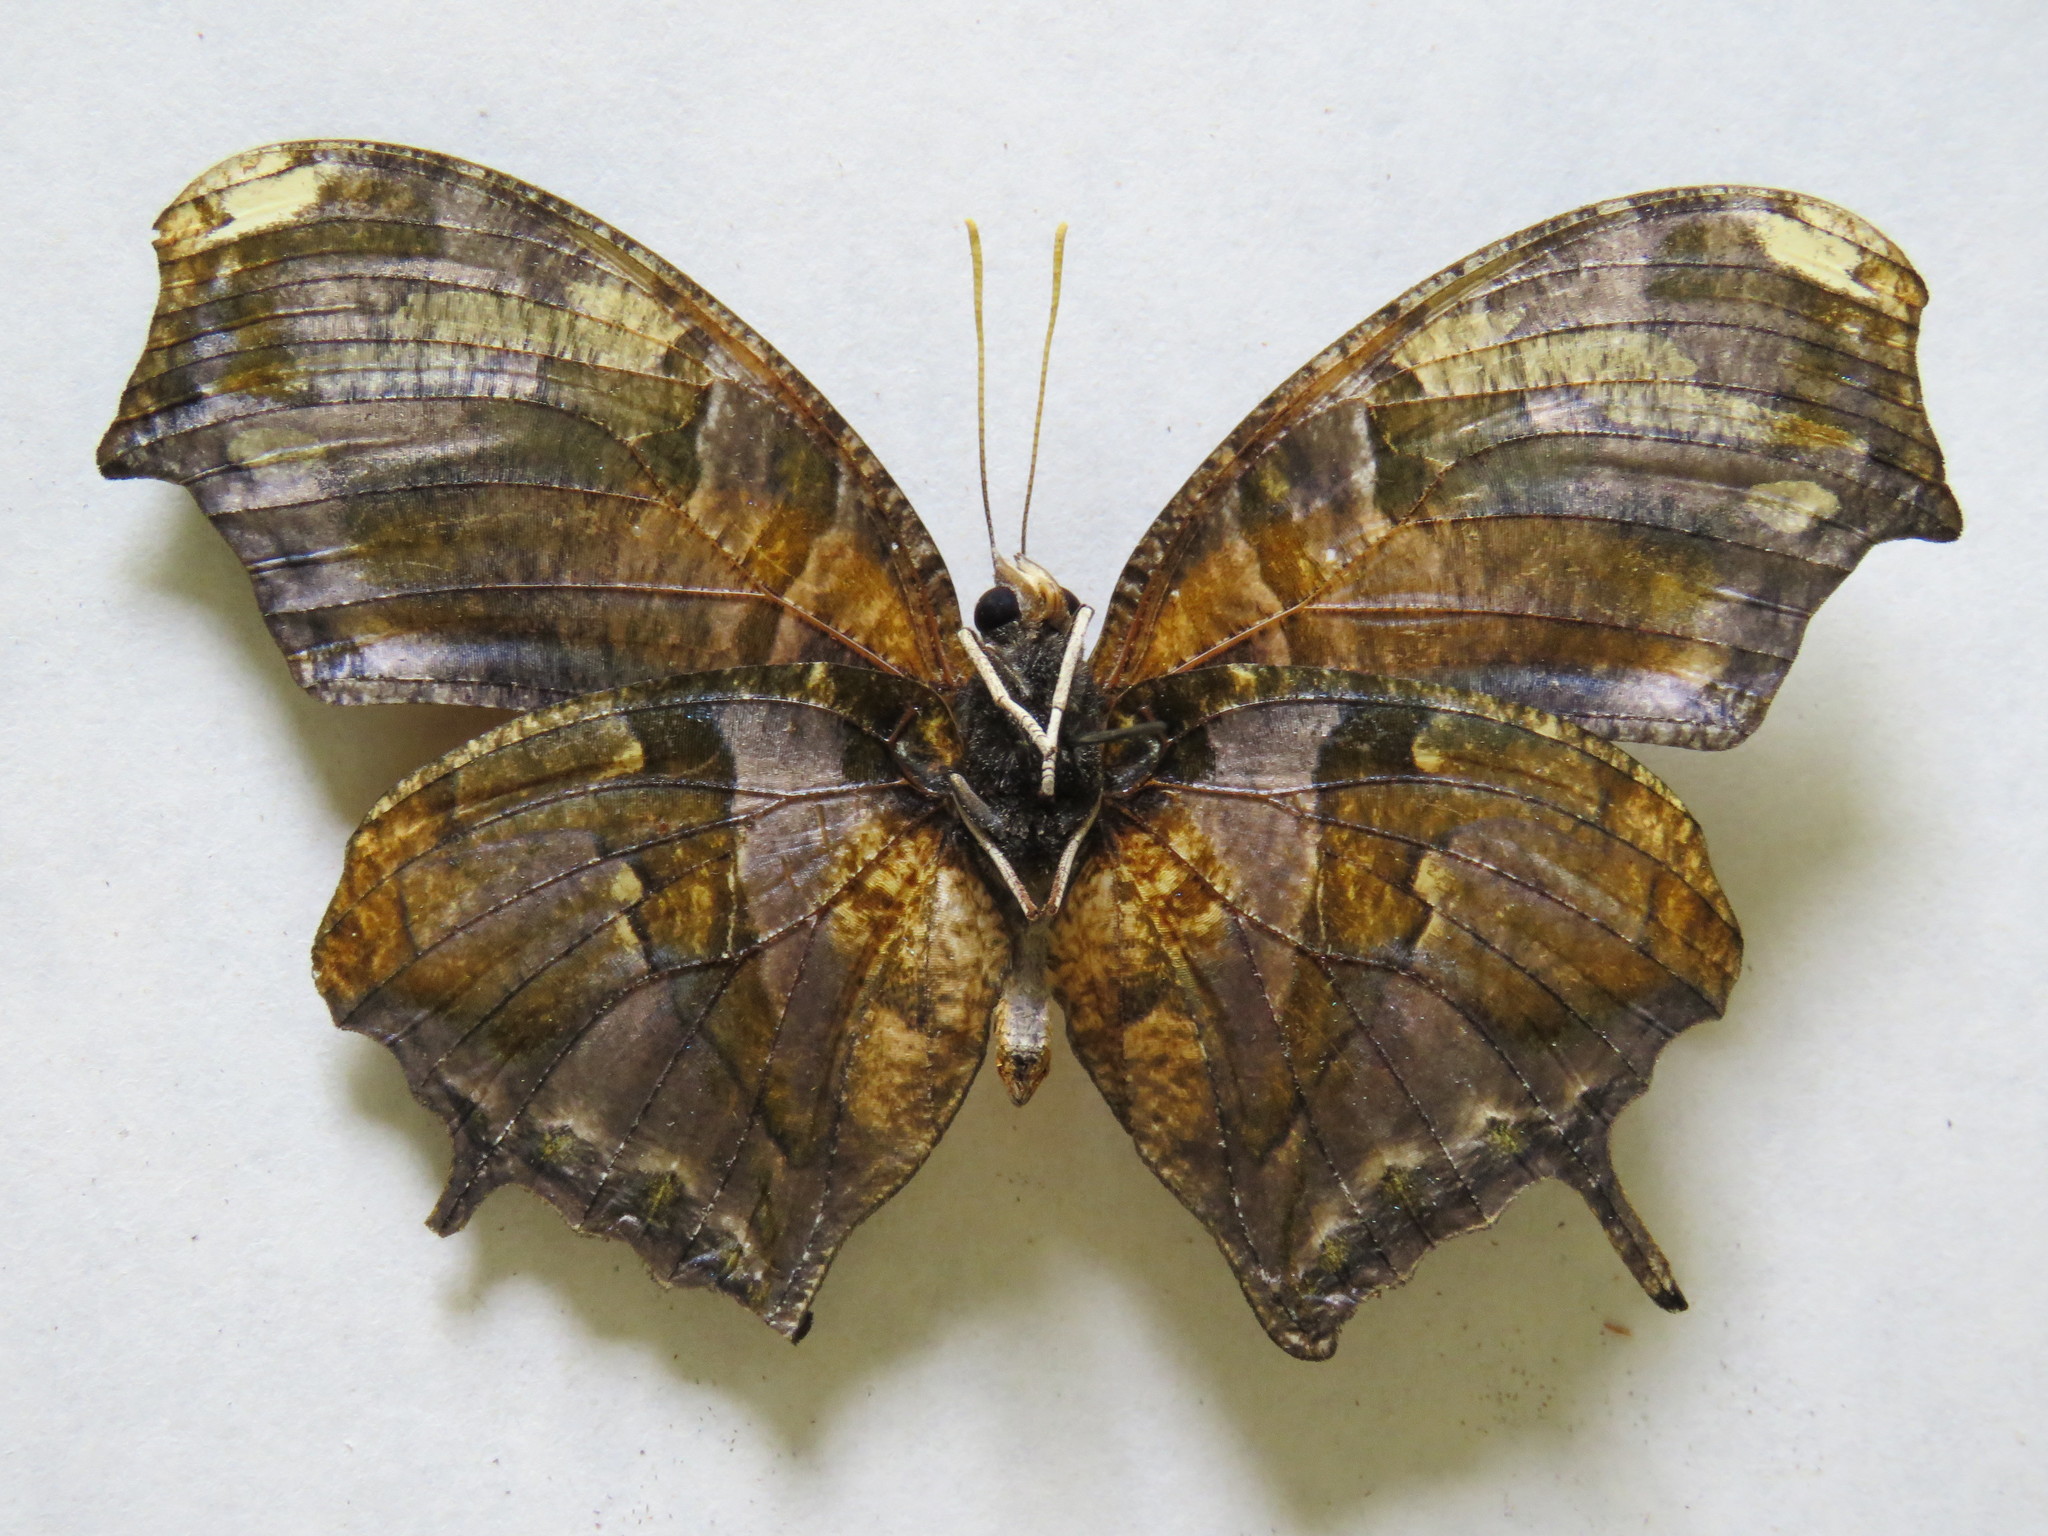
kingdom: Animalia
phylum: Arthropoda
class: Insecta
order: Lepidoptera
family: Nymphalidae
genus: Consul
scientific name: Consul fabius
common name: Tiger leafwing
